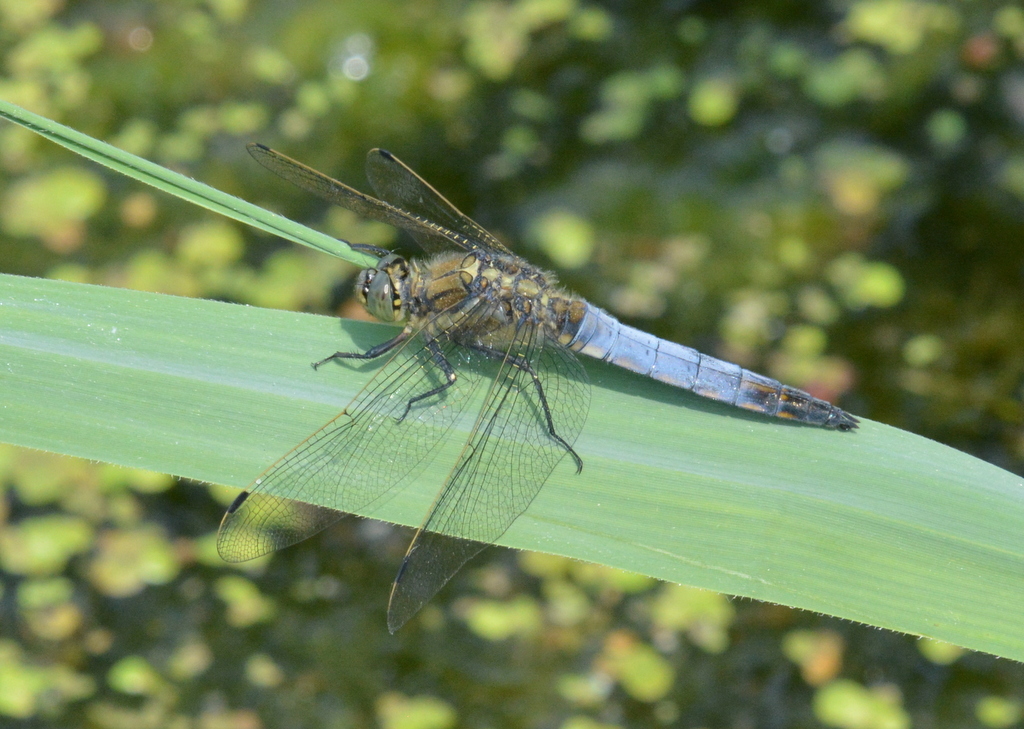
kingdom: Animalia
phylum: Arthropoda
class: Insecta
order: Odonata
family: Libellulidae
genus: Orthetrum
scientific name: Orthetrum cancellatum
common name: Black-tailed skimmer
